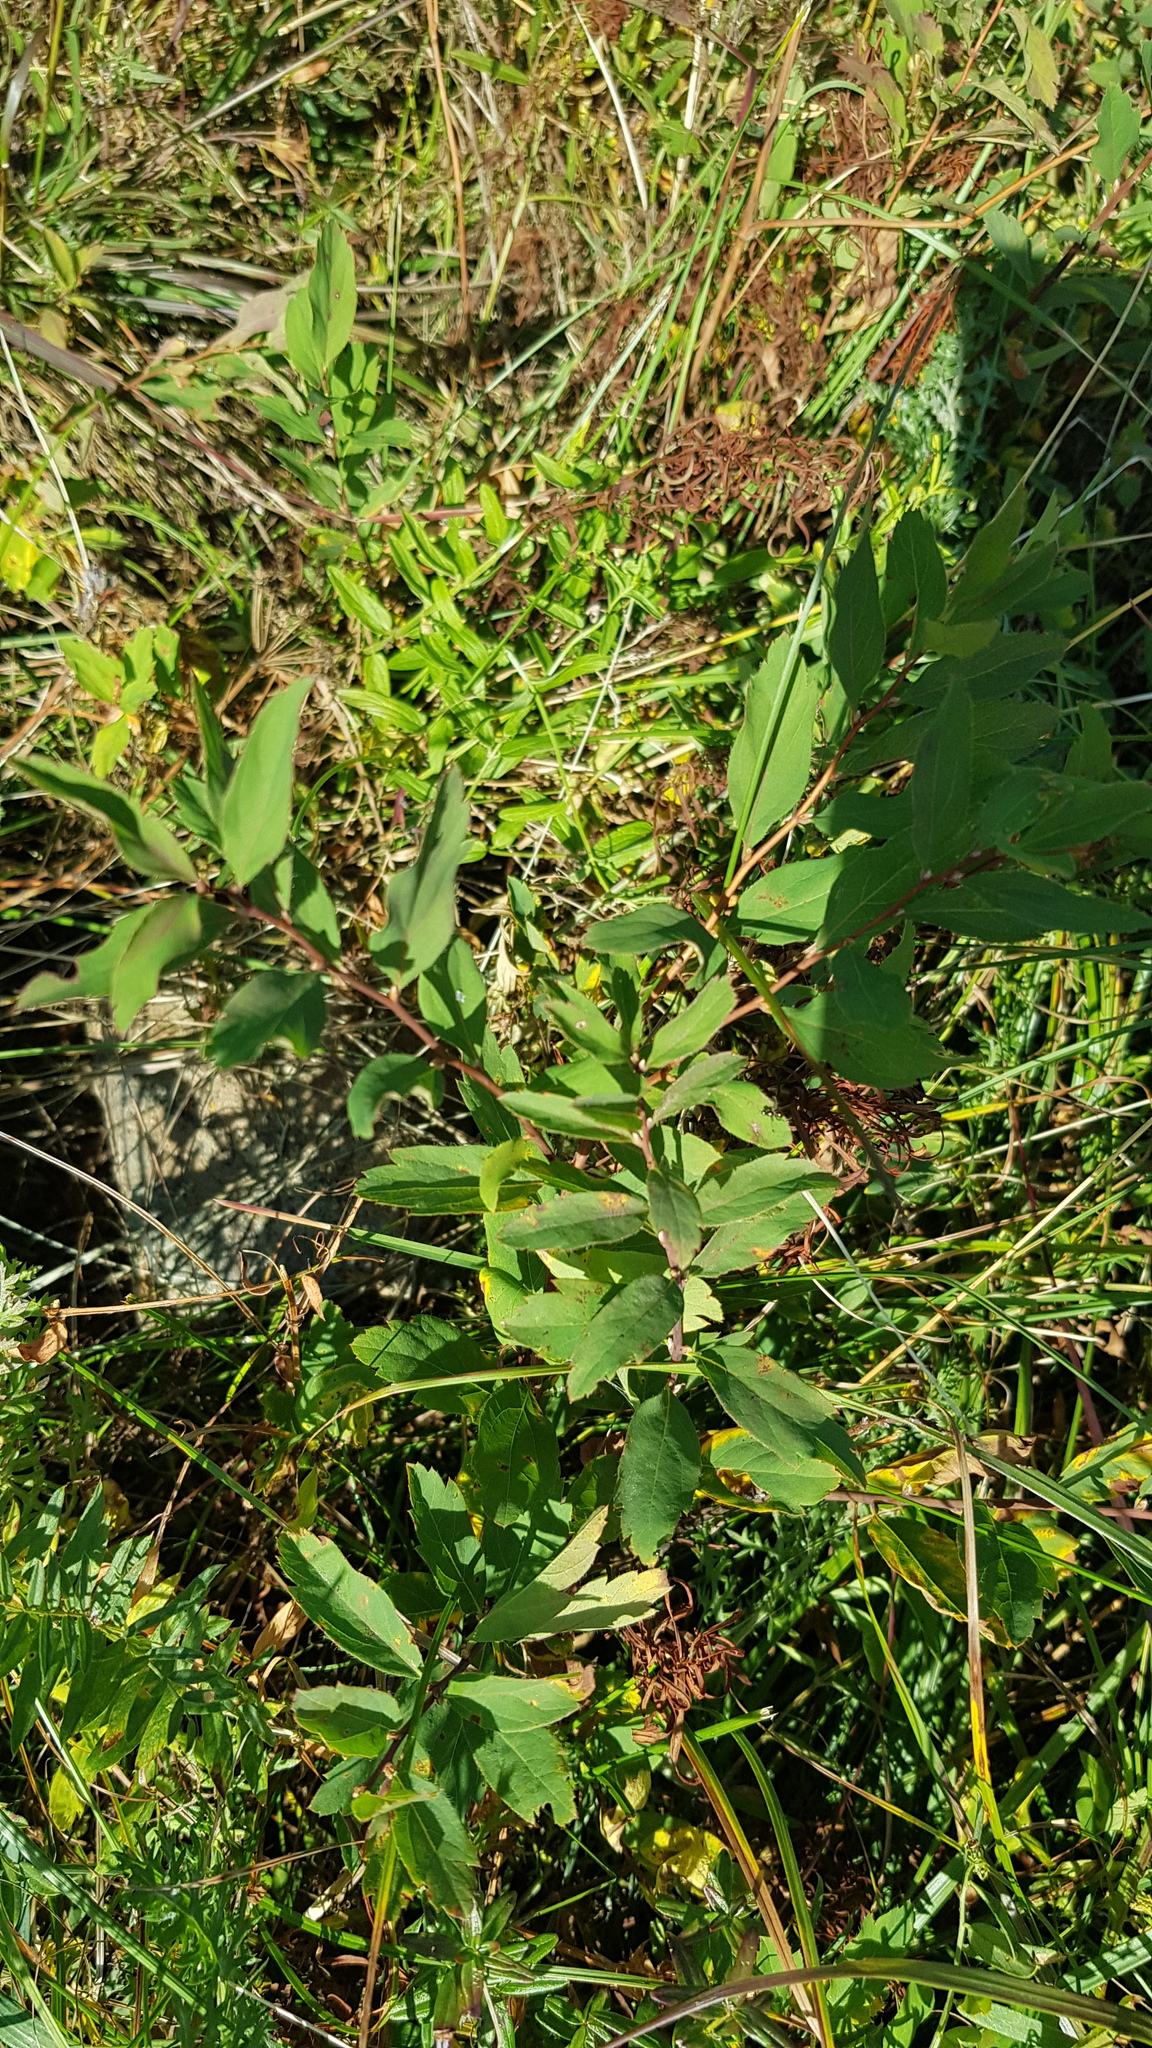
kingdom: Plantae
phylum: Tracheophyta
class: Magnoliopsida
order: Rosales
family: Rosaceae
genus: Spiraea
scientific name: Spiraea media
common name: Russian spiraea
